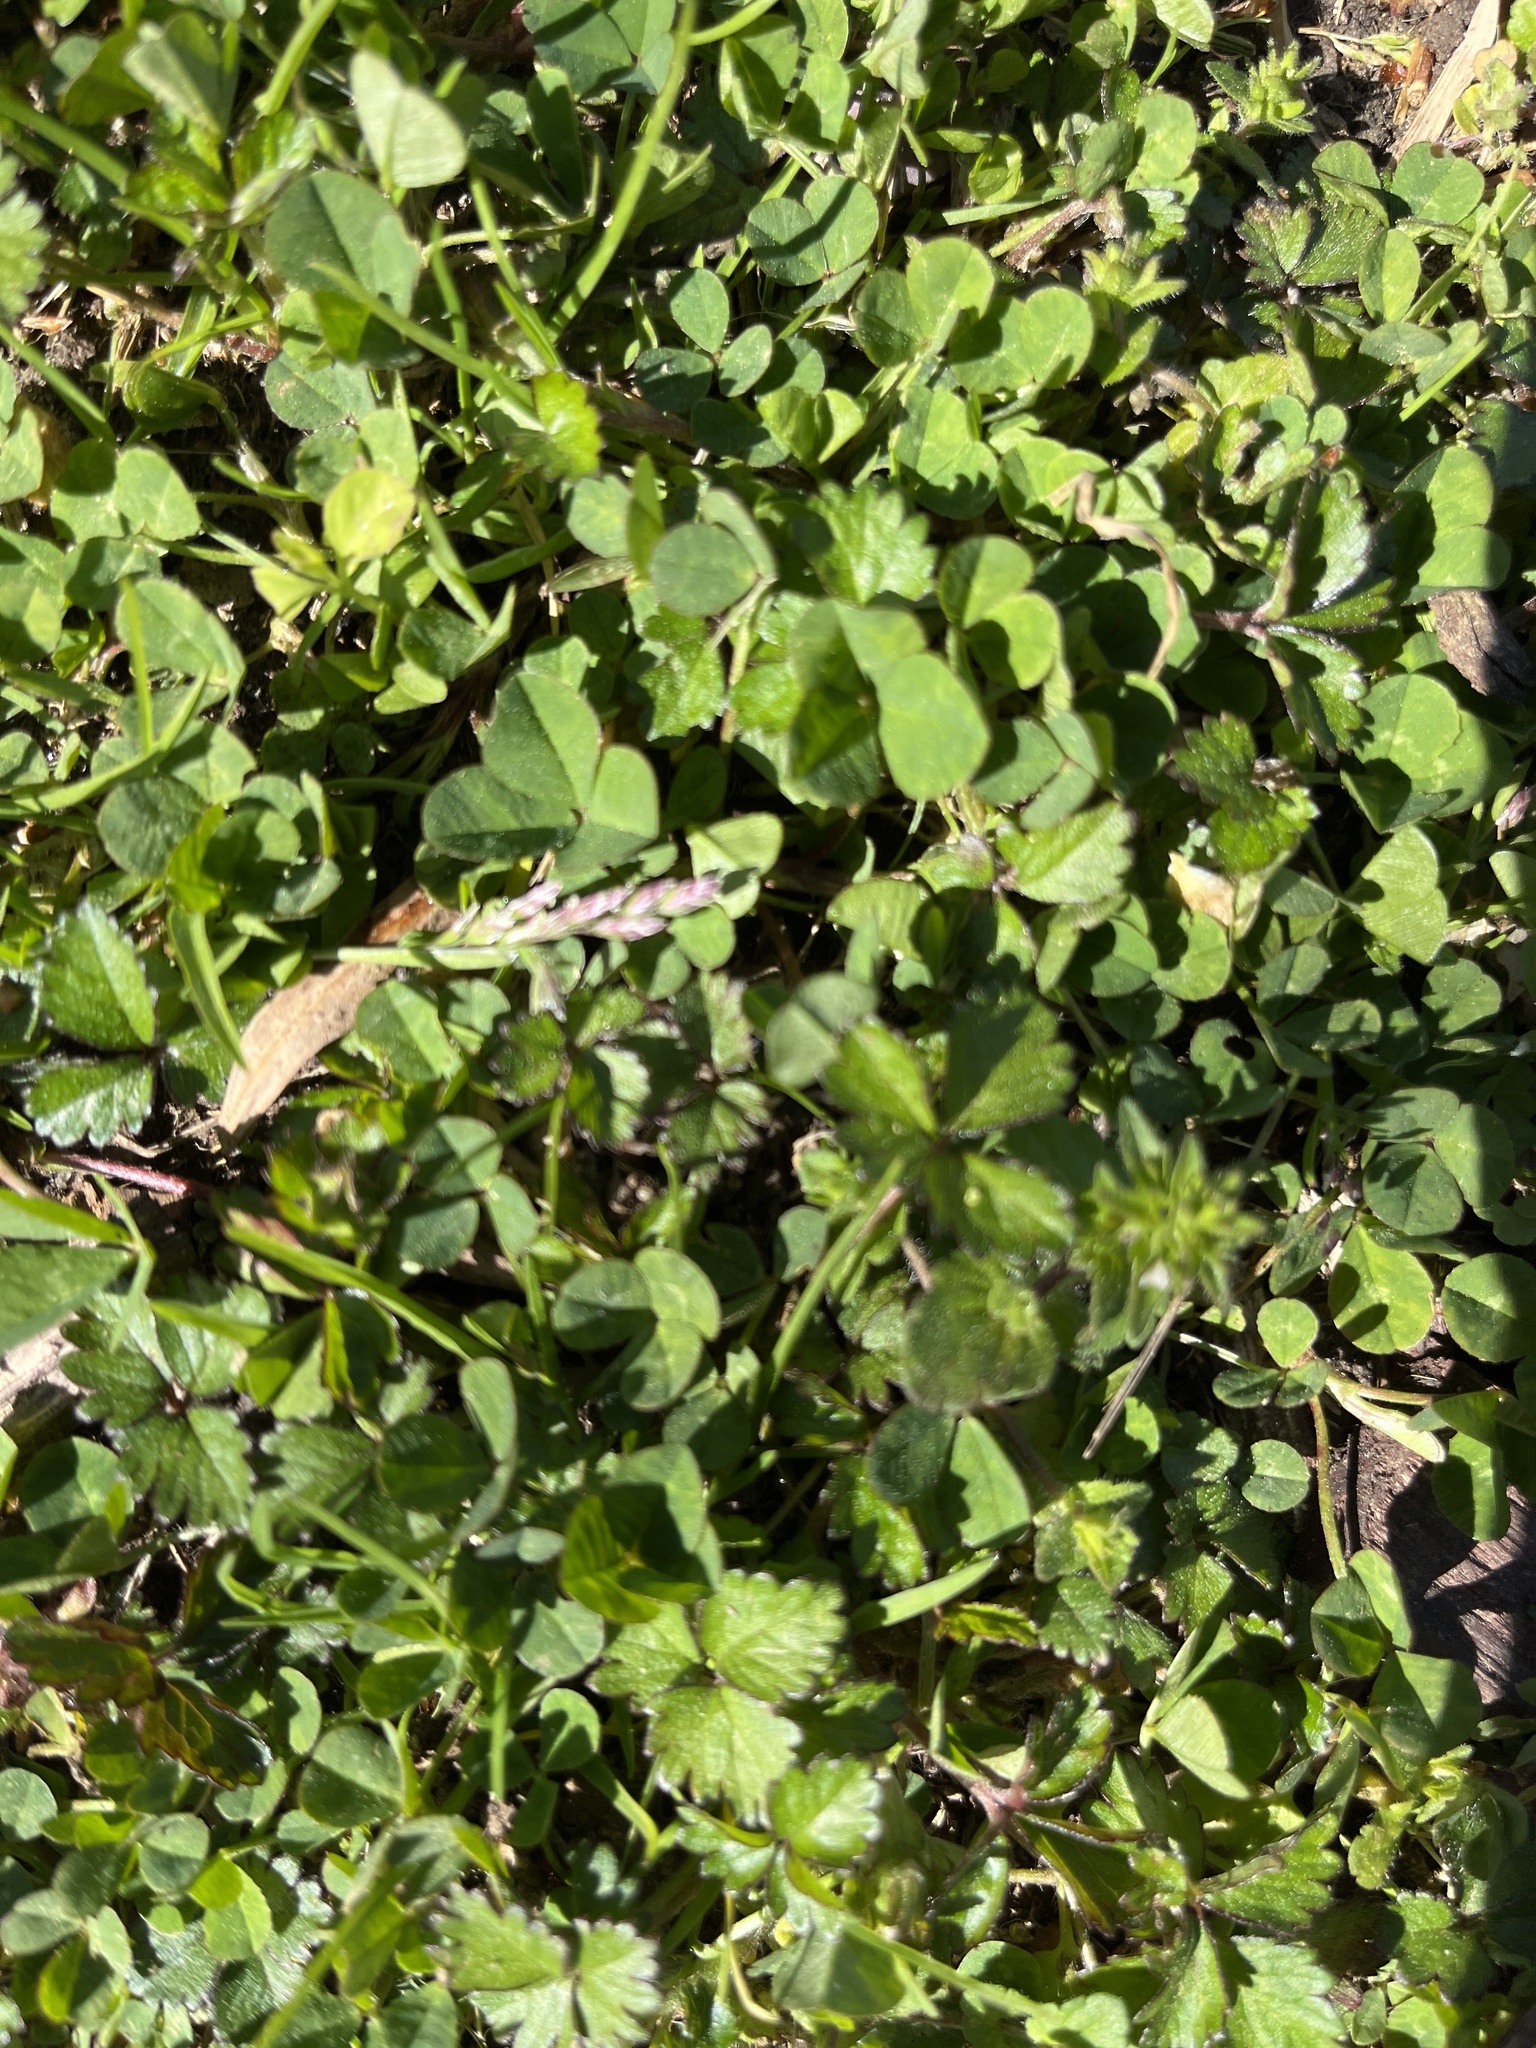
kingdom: Plantae
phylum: Tracheophyta
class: Magnoliopsida
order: Fabales
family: Fabaceae
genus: Trifolium
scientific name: Trifolium repens
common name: White clover
